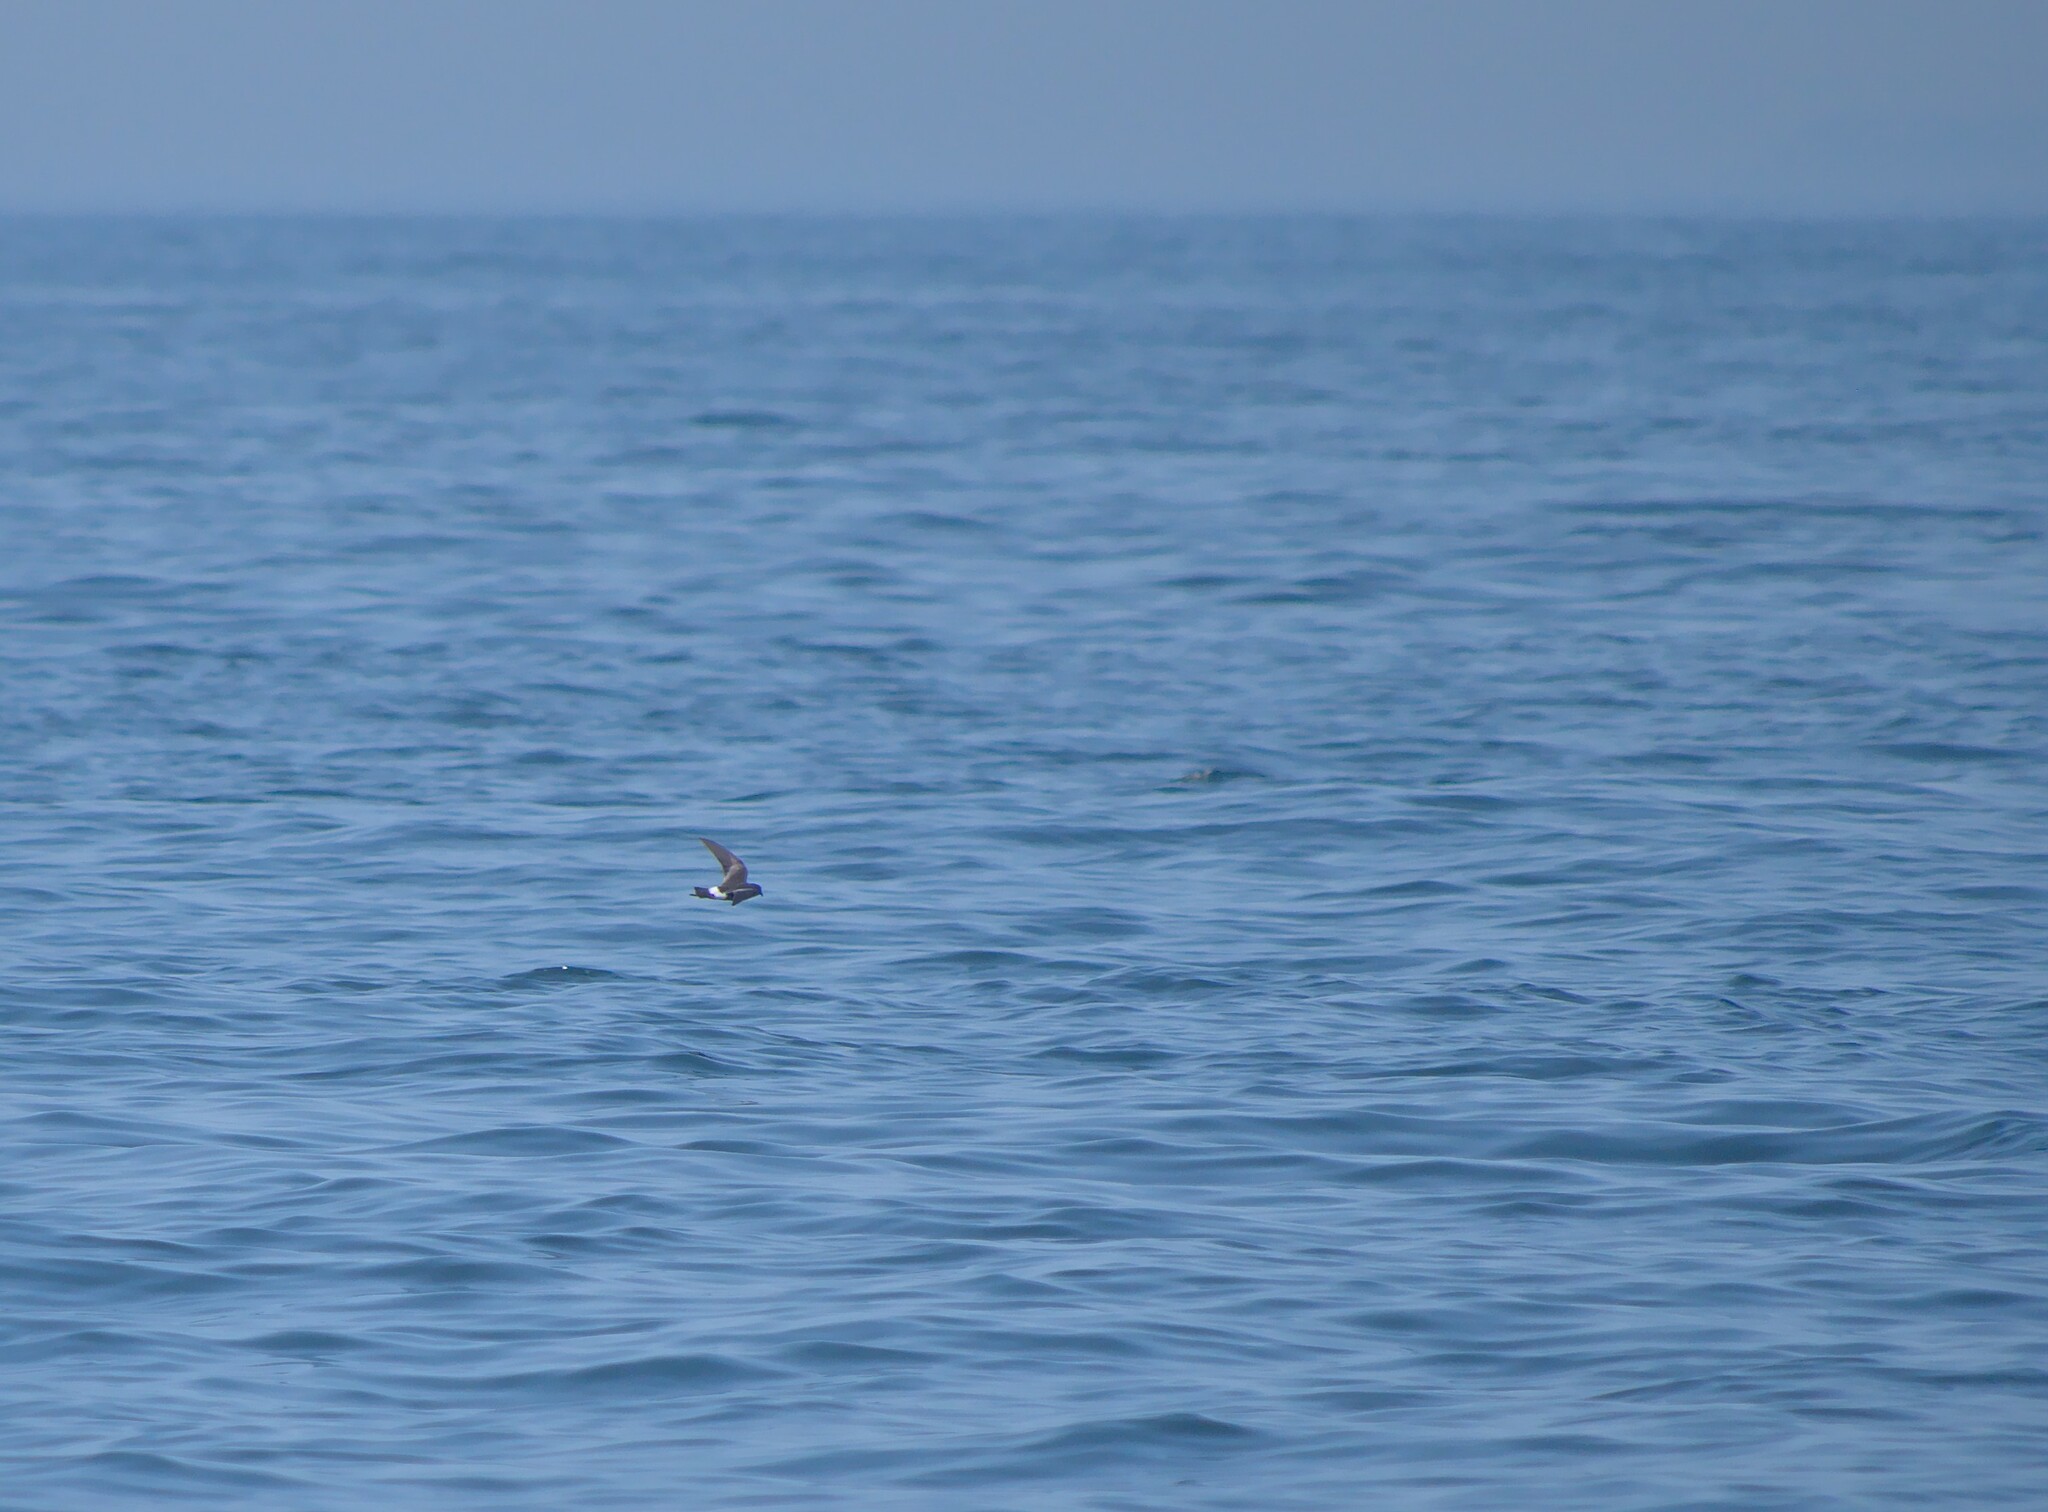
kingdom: Animalia
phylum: Chordata
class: Aves
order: Procellariiformes
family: Hydrobatidae
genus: Oceanites
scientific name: Oceanites oceanicus
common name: Wilson's storm petrel
